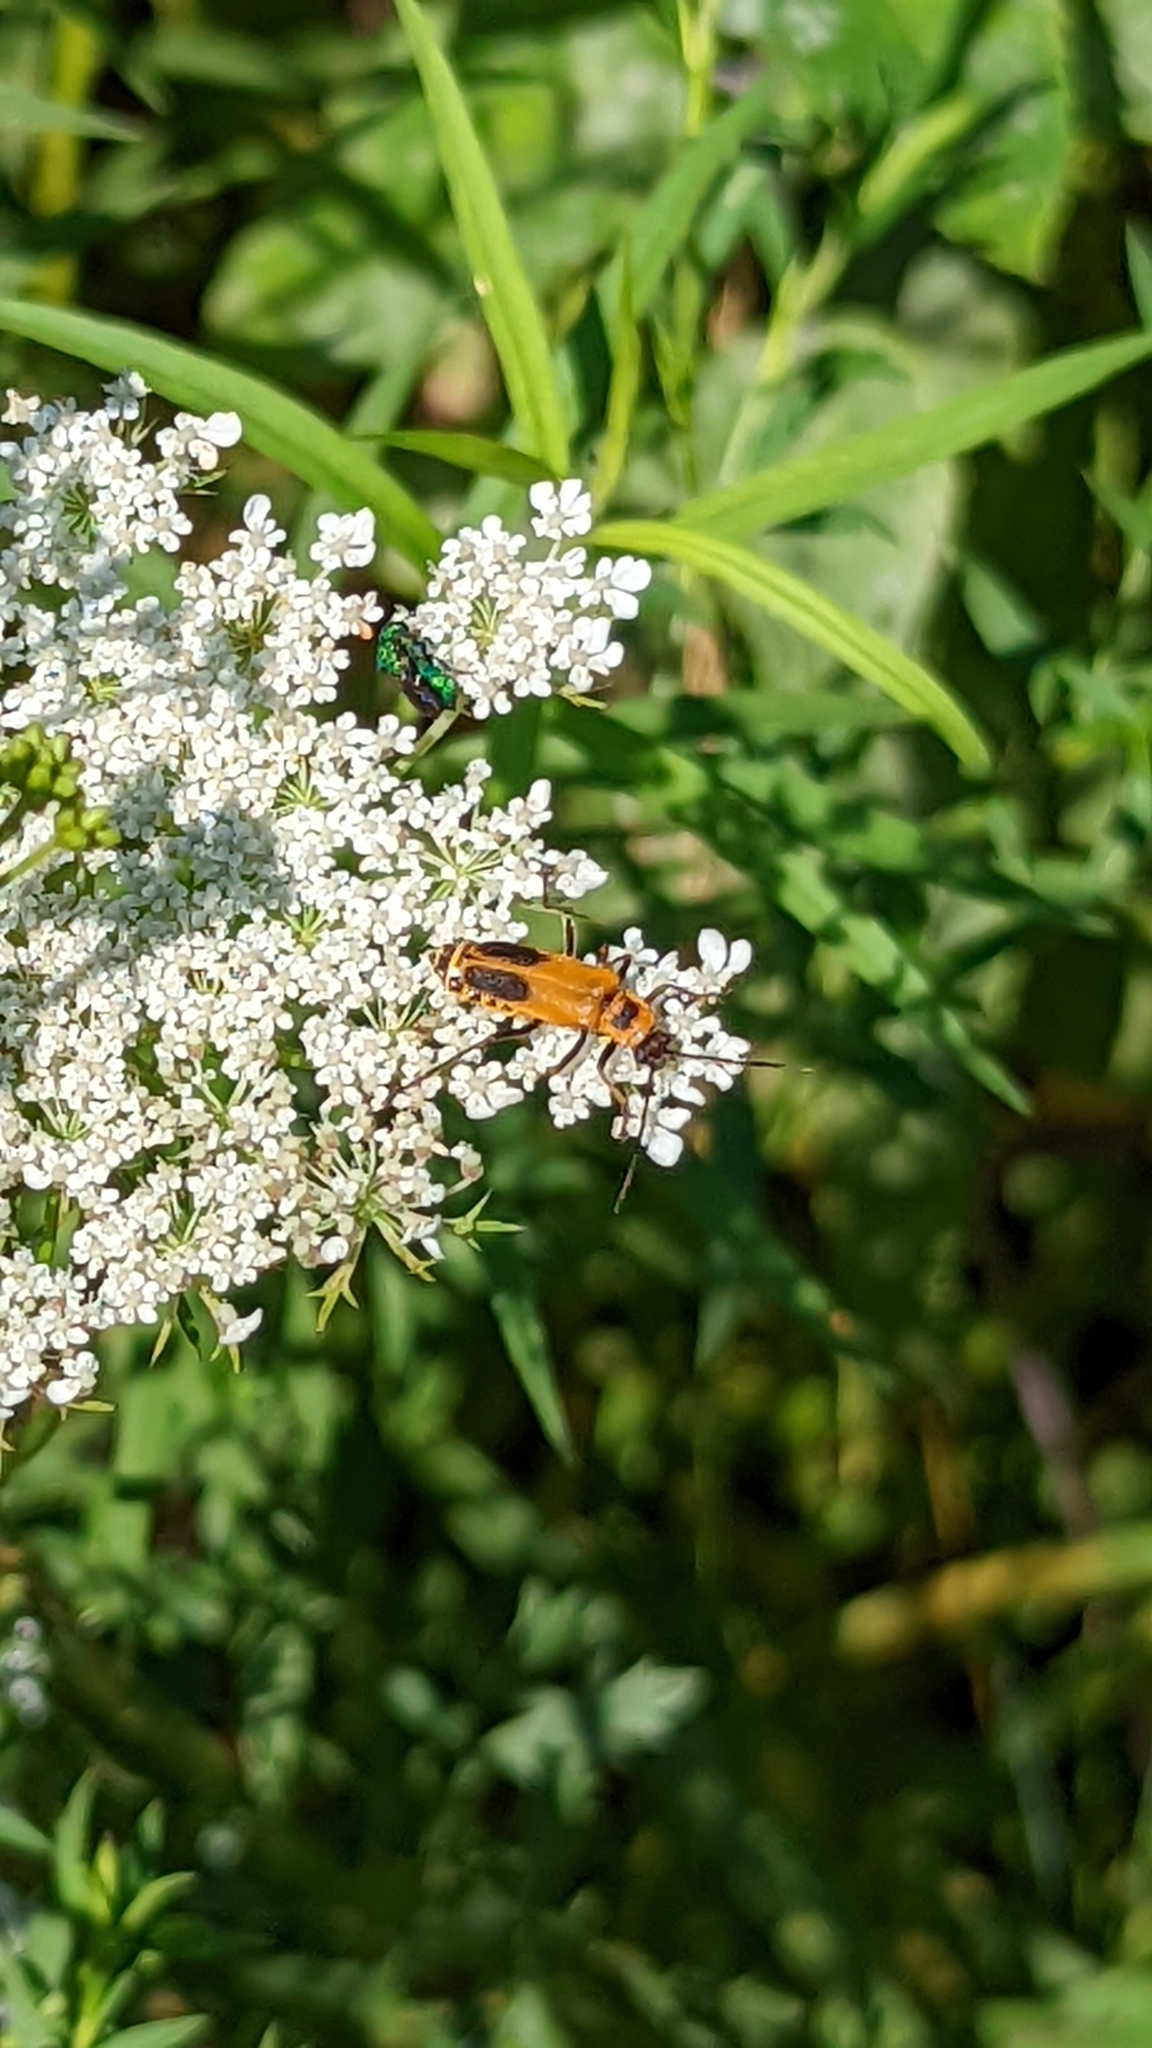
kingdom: Animalia
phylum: Arthropoda
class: Insecta
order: Coleoptera
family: Cantharidae
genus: Chauliognathus
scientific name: Chauliognathus pensylvanicus
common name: Goldenrod soldier beetle
